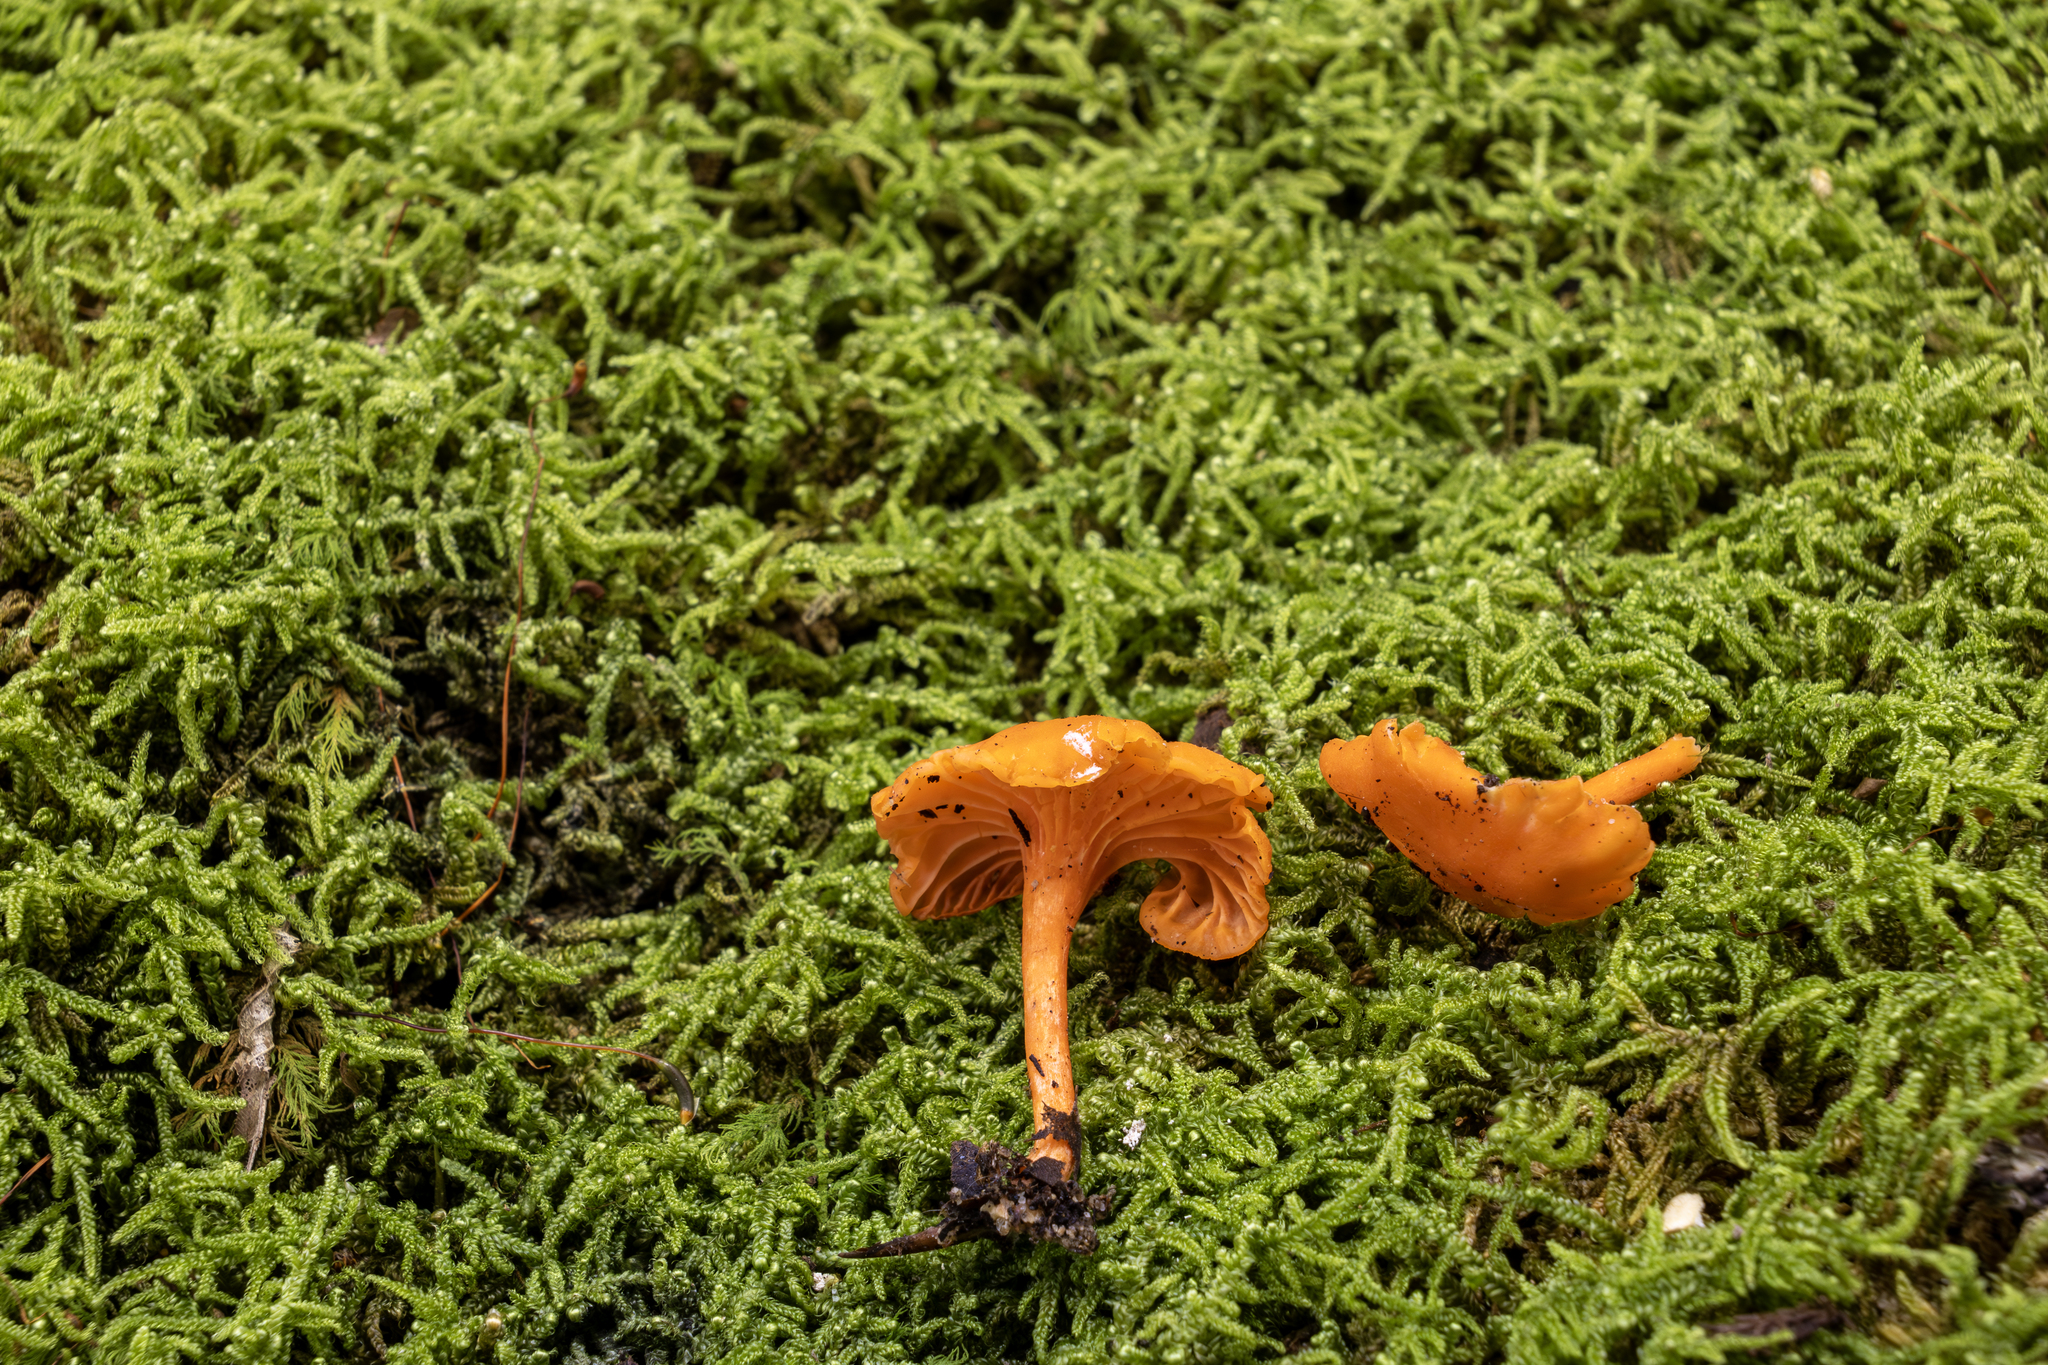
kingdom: Fungi
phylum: Basidiomycota
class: Agaricomycetes
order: Cantharellales
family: Hydnaceae
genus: Cantharellus
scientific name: Cantharellus cinnabarinus
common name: Cinnabar chanterelle
